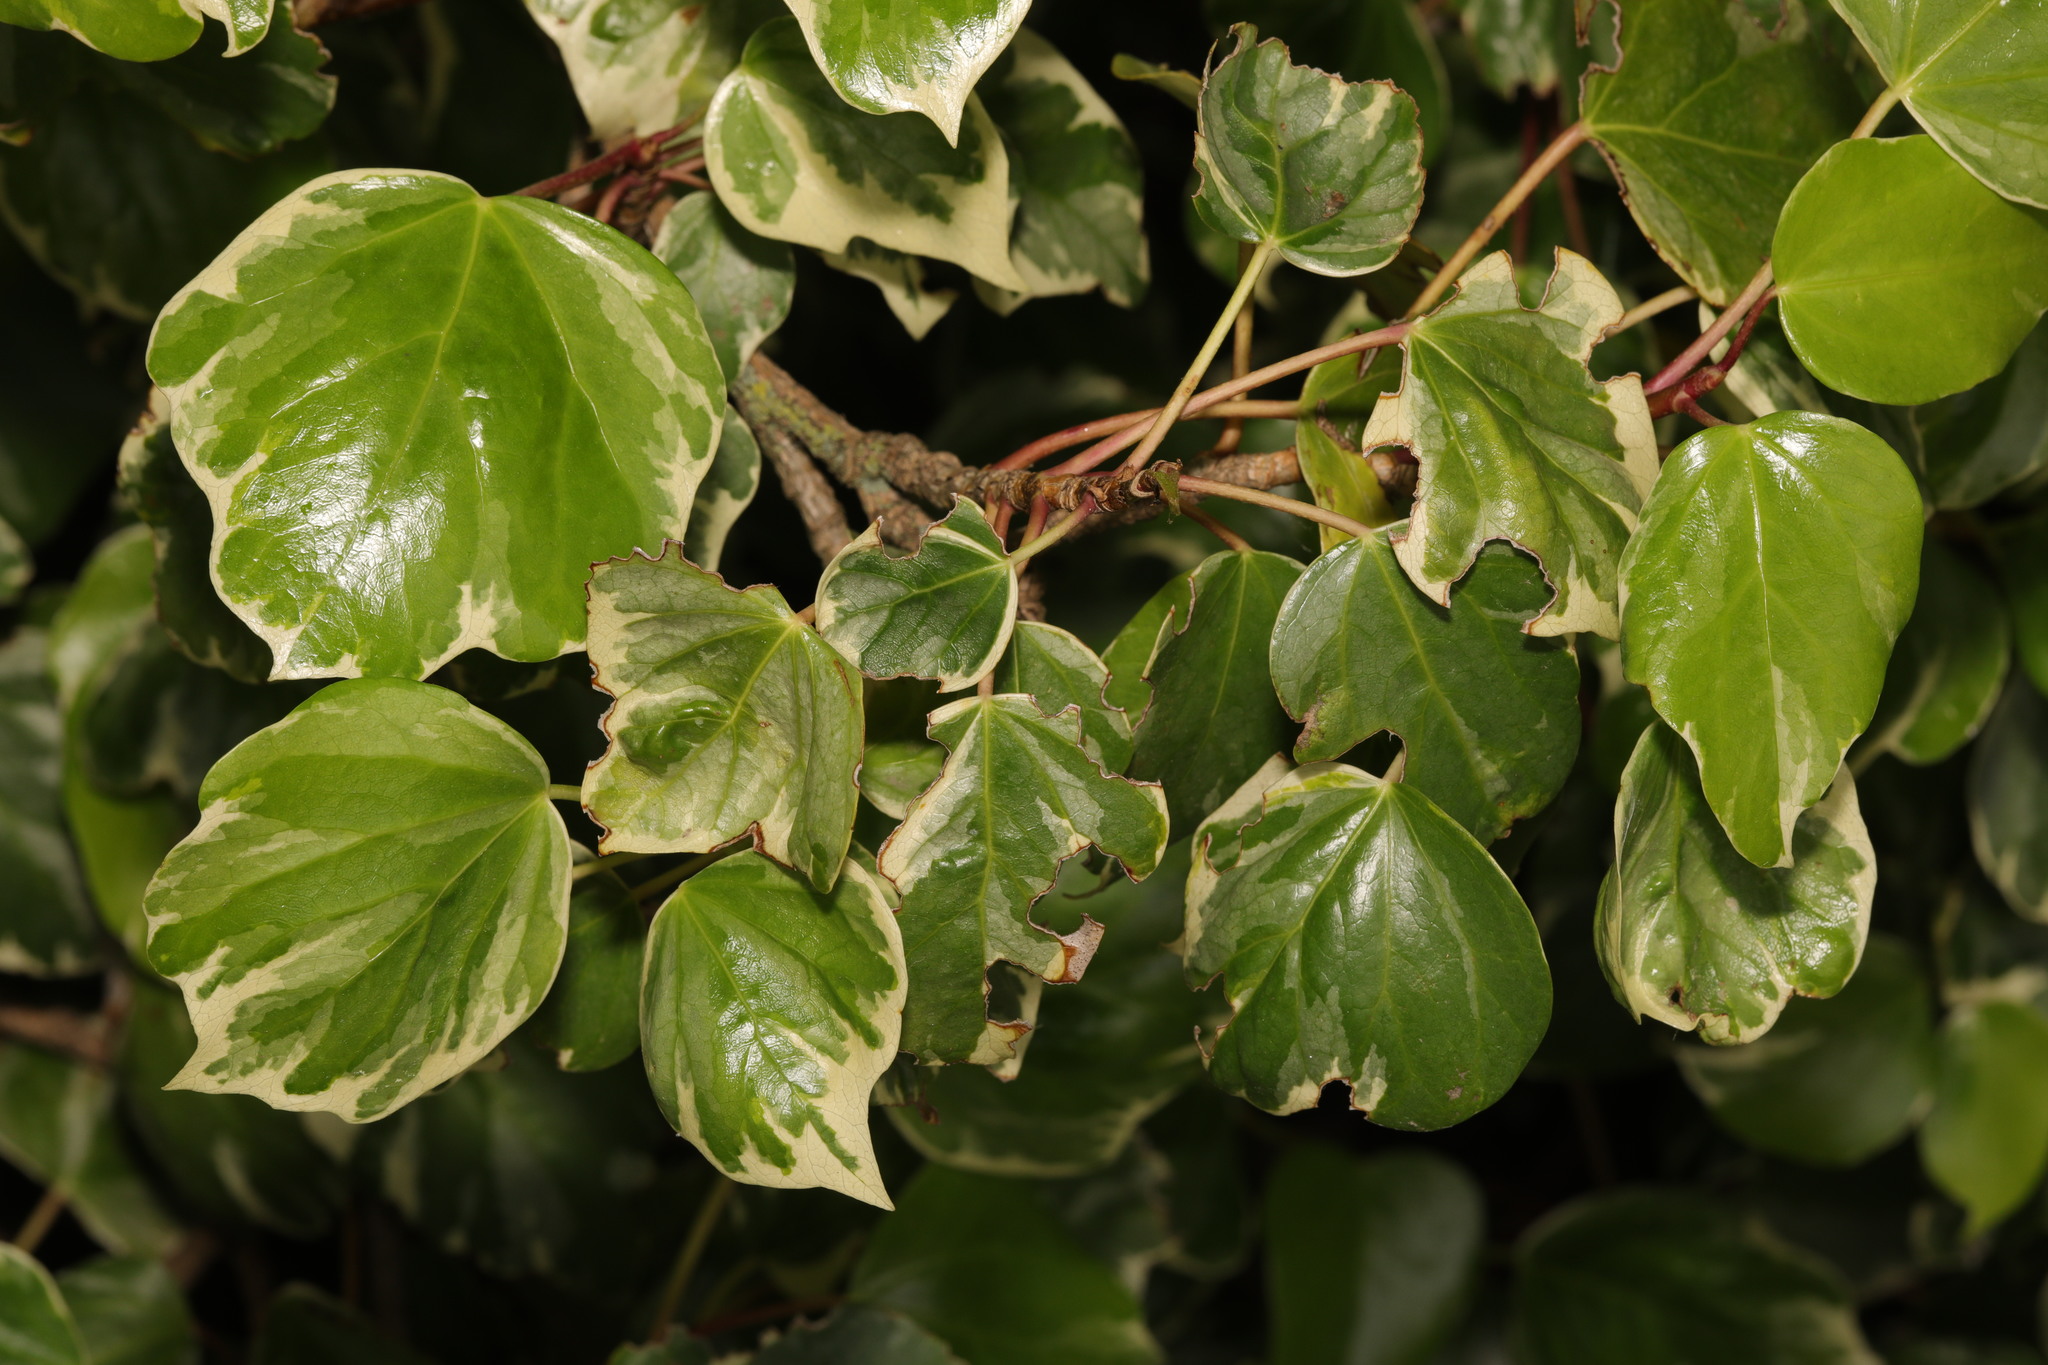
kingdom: Plantae
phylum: Tracheophyta
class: Magnoliopsida
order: Apiales
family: Araliaceae
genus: Hedera
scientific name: Hedera colchica
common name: Persian ivy
